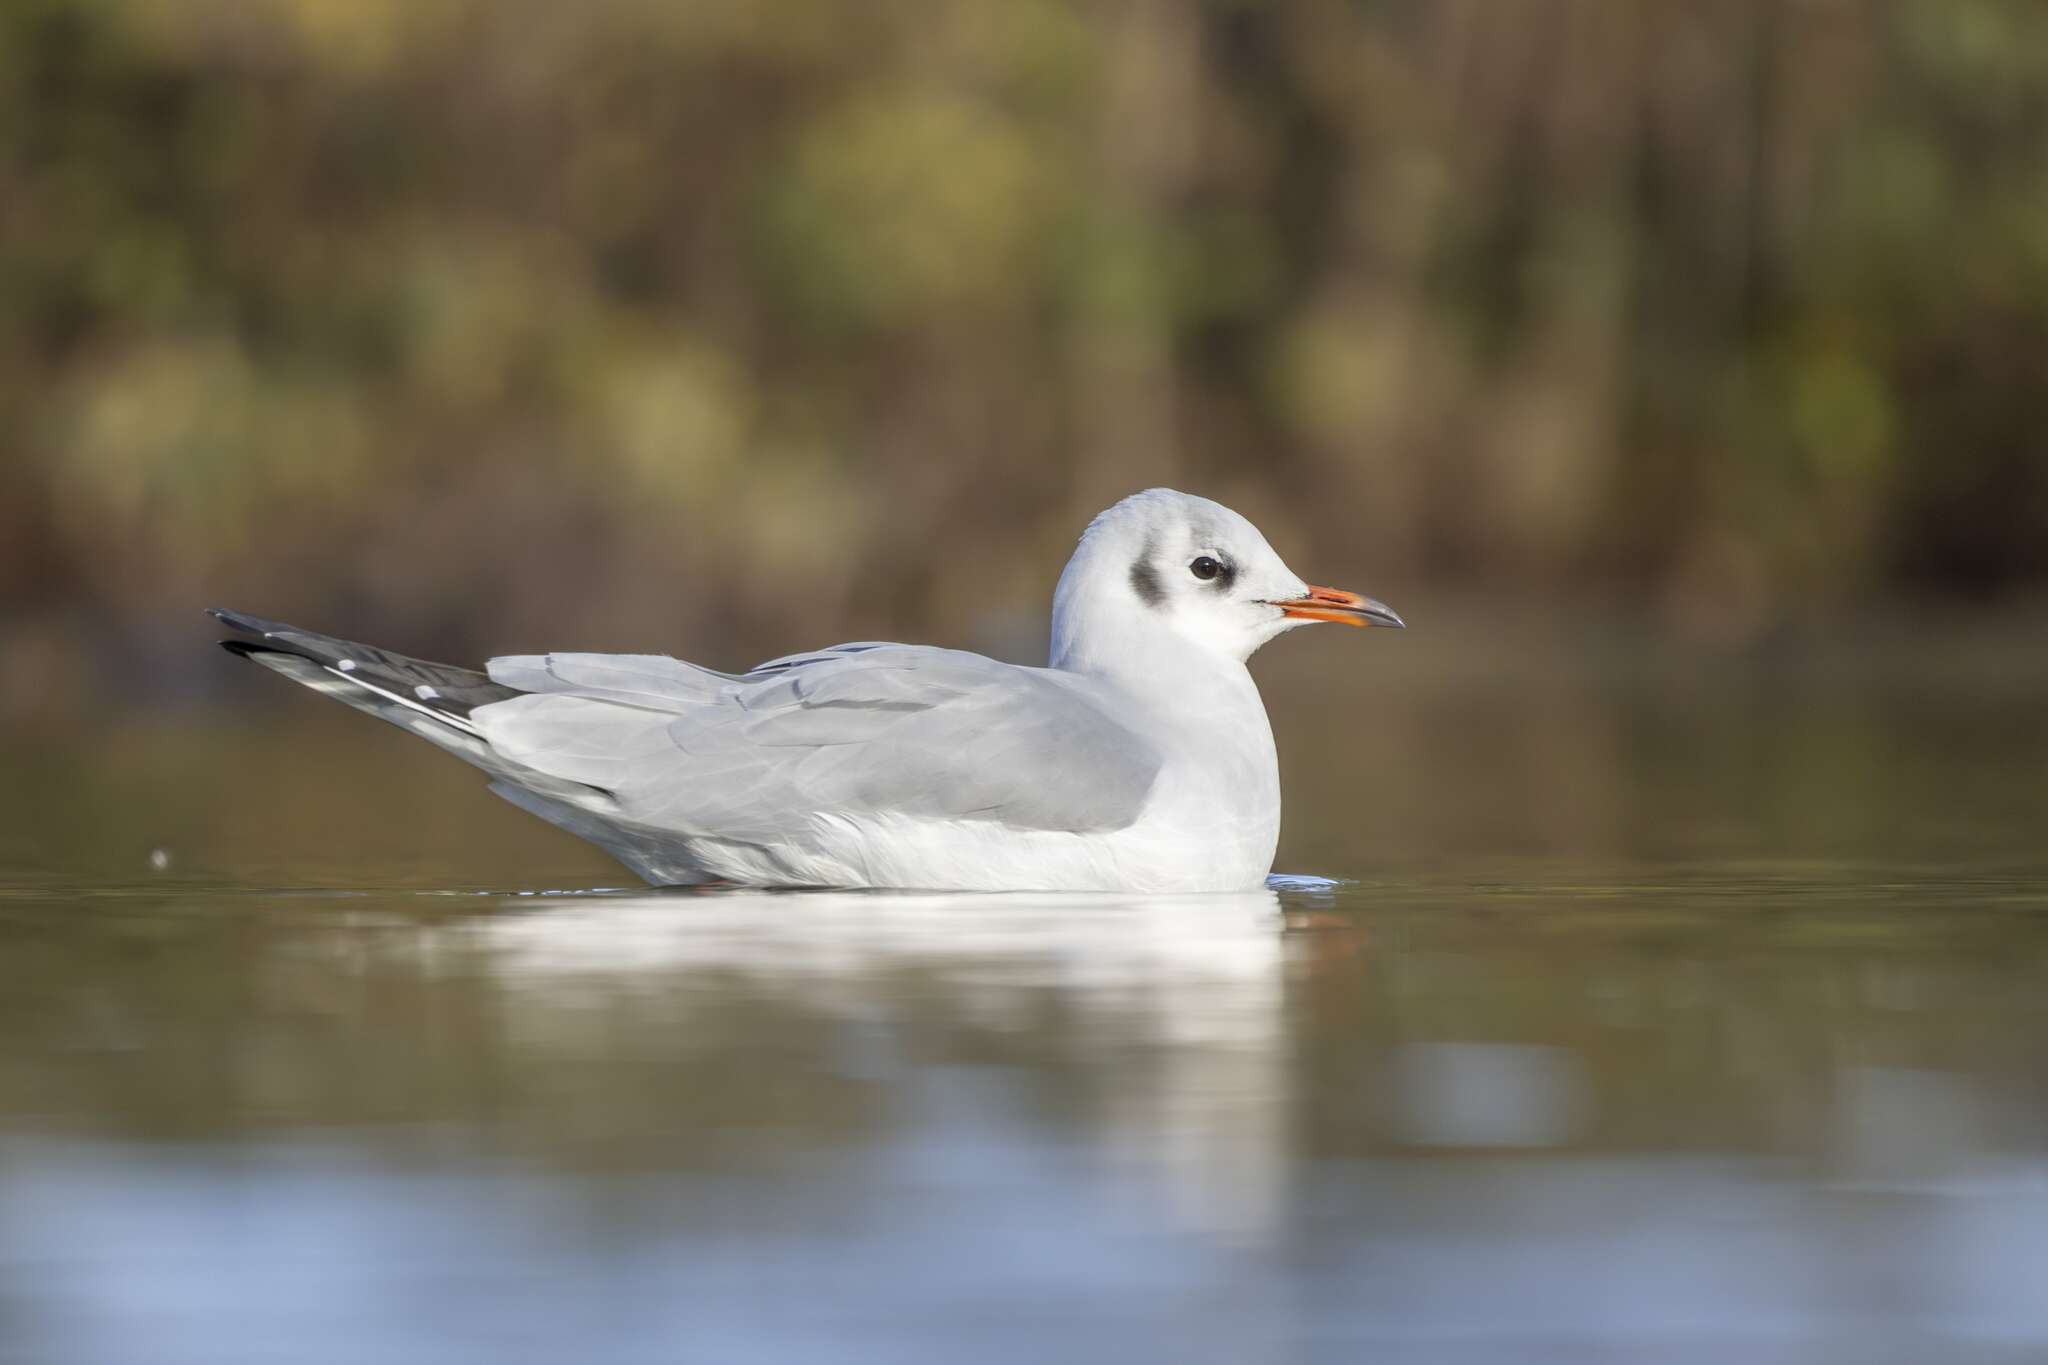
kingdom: Animalia
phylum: Chordata
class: Aves
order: Charadriiformes
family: Laridae
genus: Chroicocephalus
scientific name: Chroicocephalus ridibundus
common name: Black-headed gull
